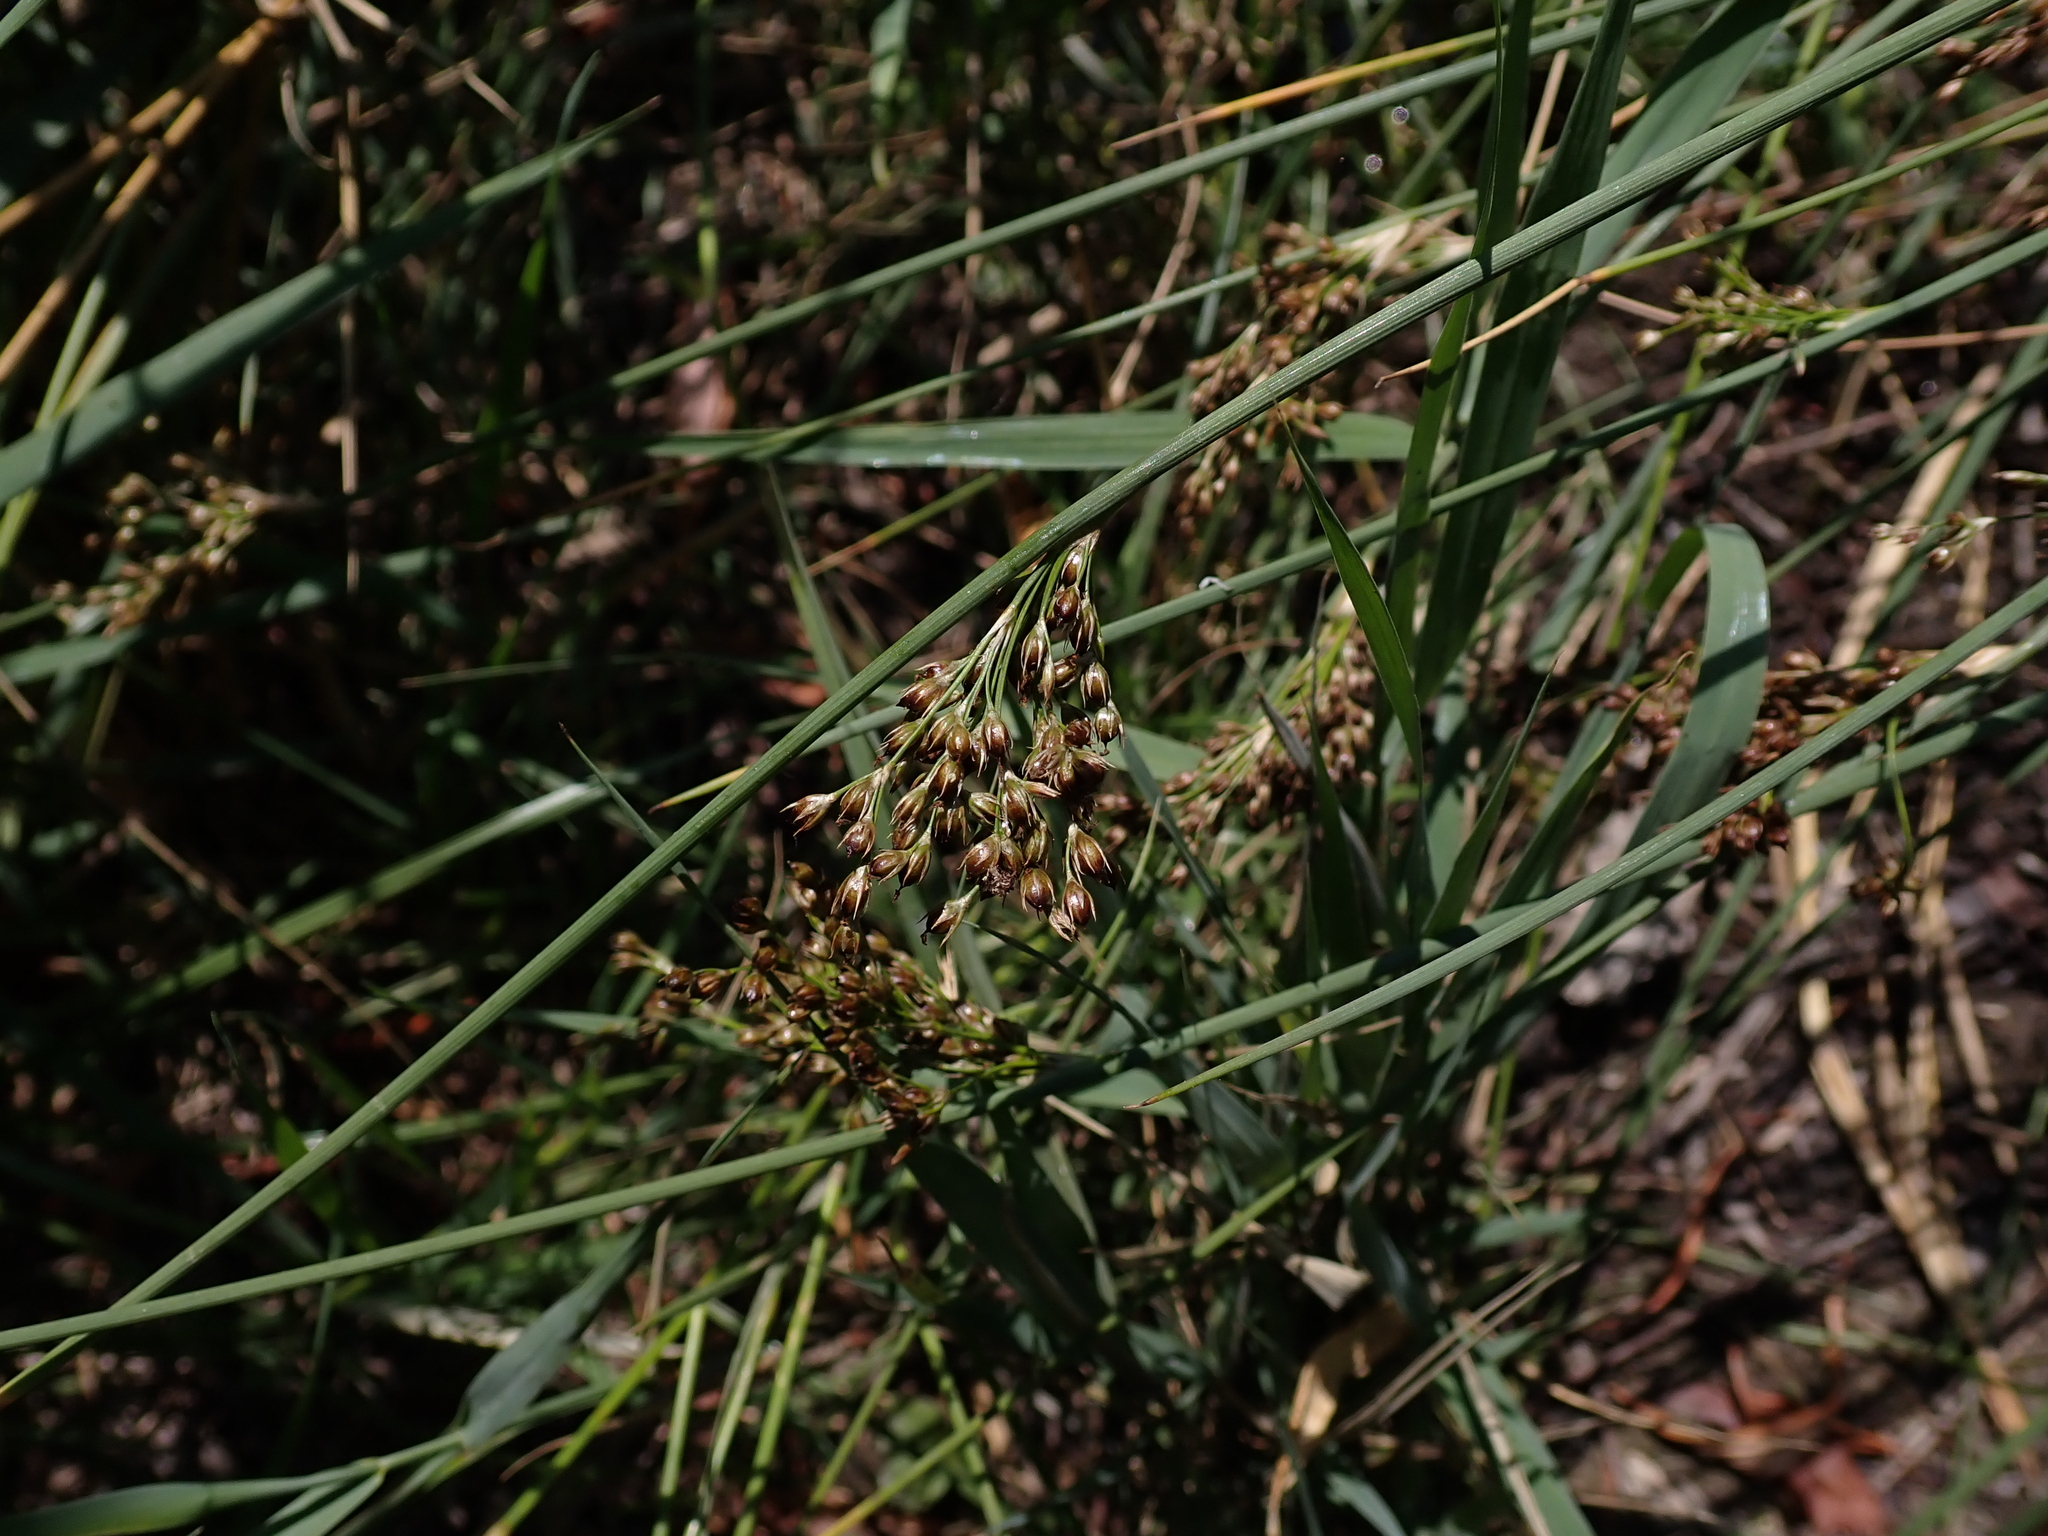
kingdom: Plantae
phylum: Tracheophyta
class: Liliopsida
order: Poales
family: Juncaceae
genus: Juncus
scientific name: Juncus inflexus
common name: Hard rush
